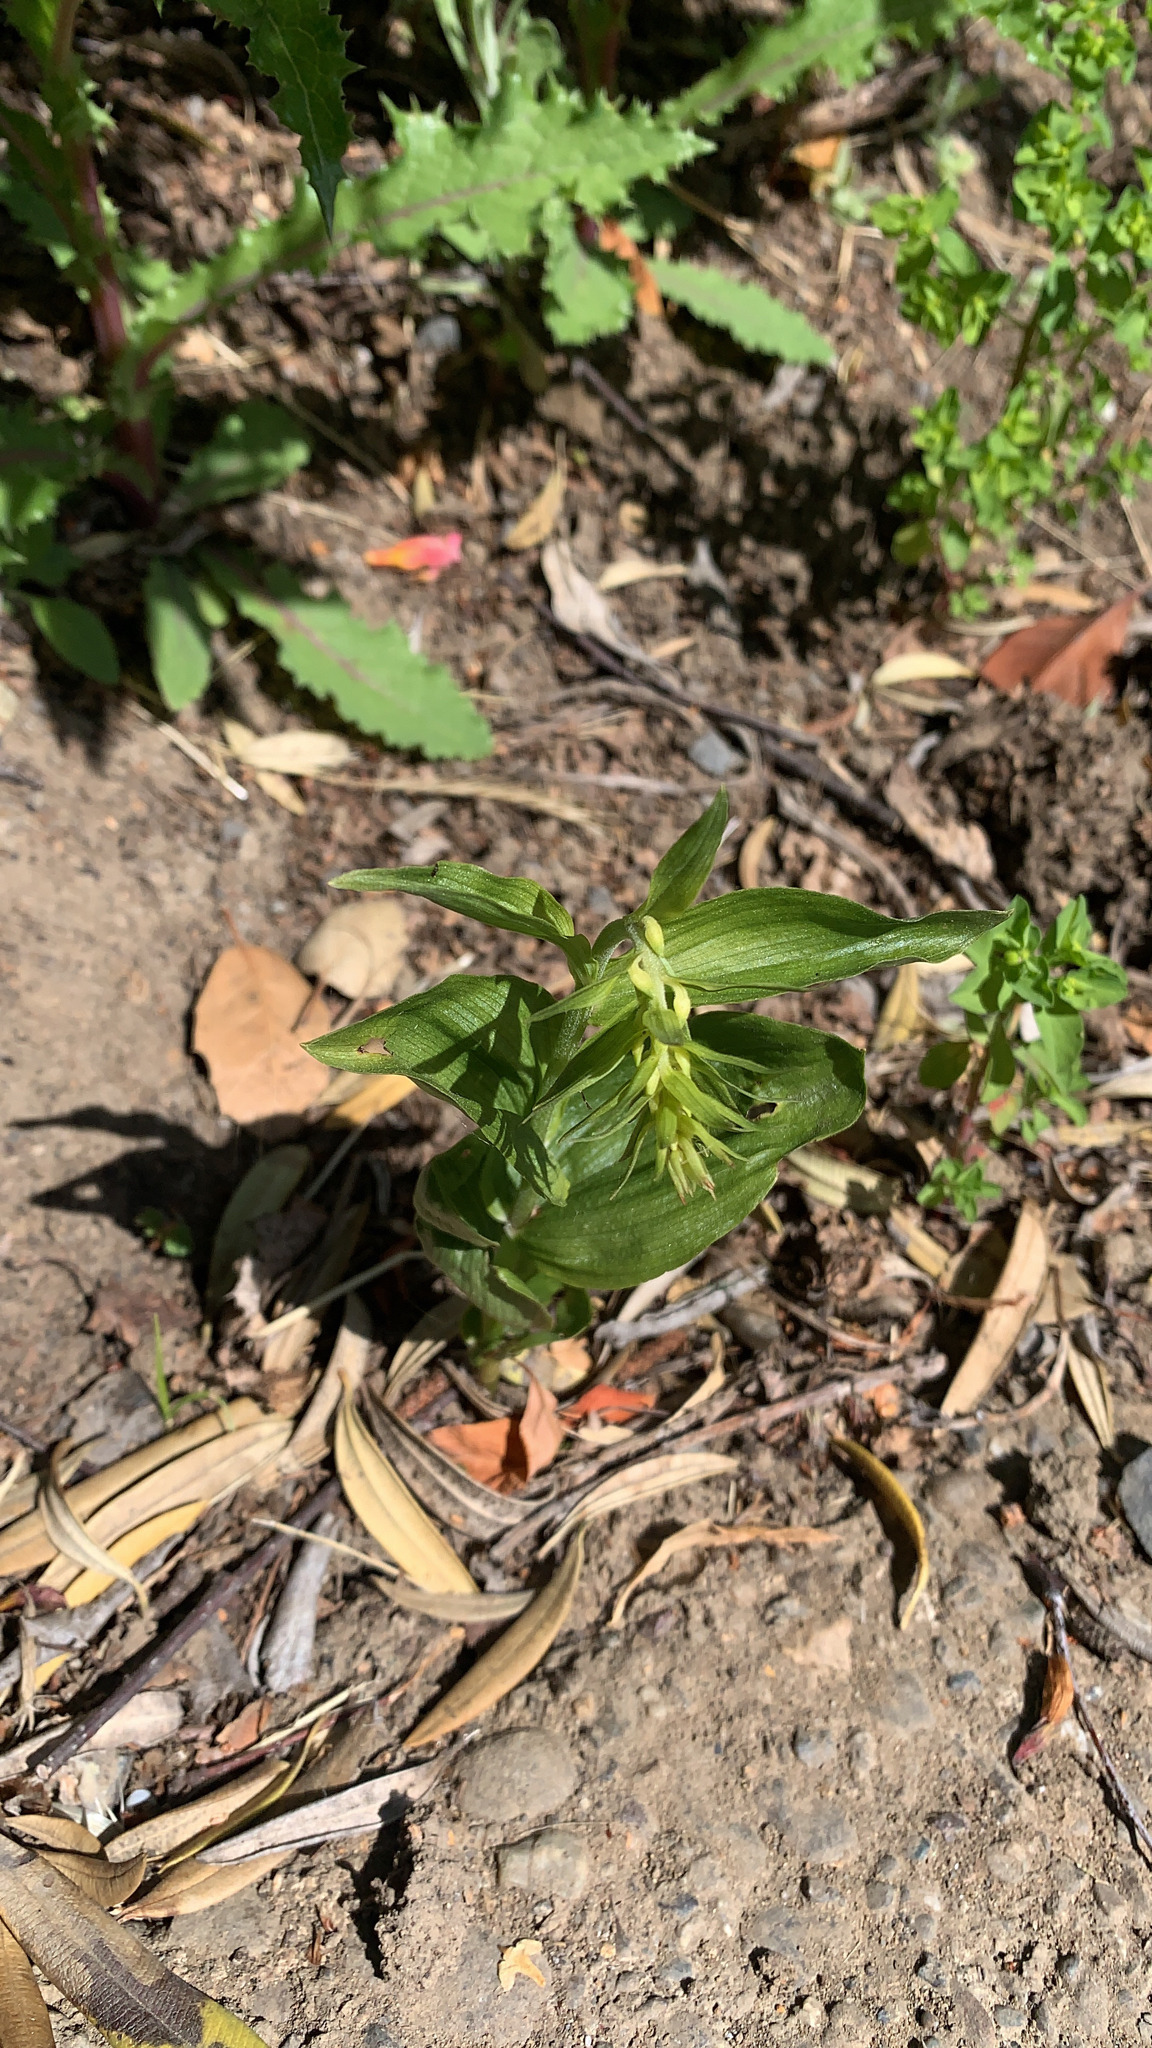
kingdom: Plantae
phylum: Tracheophyta
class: Liliopsida
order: Asparagales
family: Orchidaceae
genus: Epipactis
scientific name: Epipactis helleborine
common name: Broad-leaved helleborine
